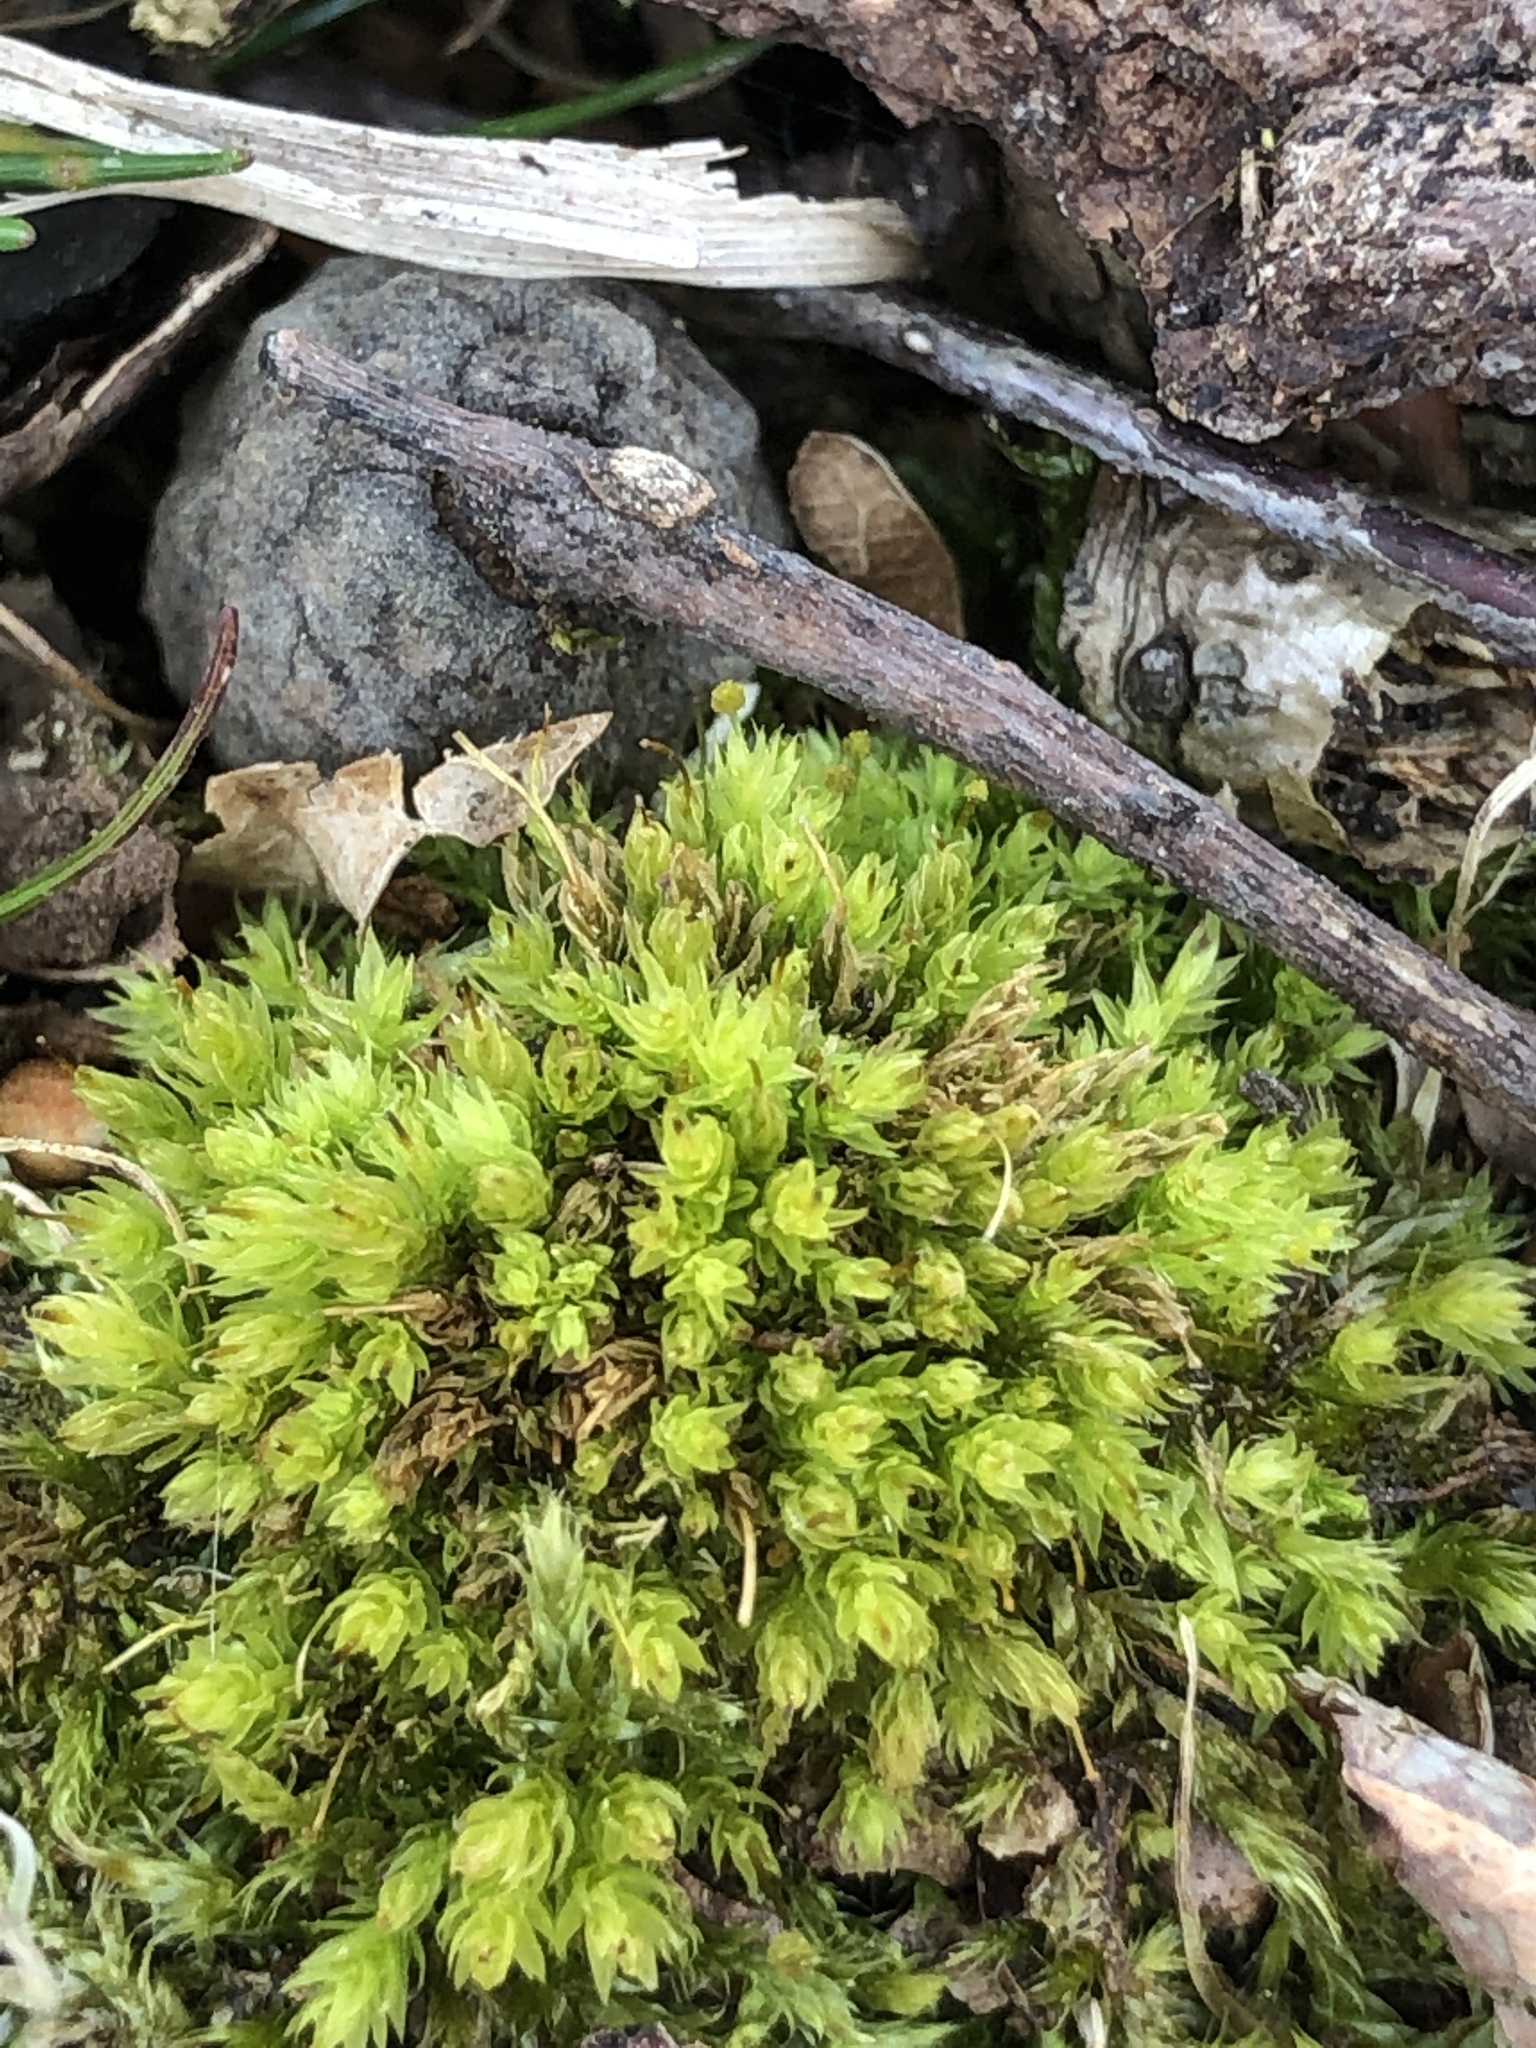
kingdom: Plantae
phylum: Bryophyta
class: Bryopsida
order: Aulacomniales
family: Aulacomniaceae
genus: Aulacomnium
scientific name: Aulacomnium androgynum
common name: Little groove moss
